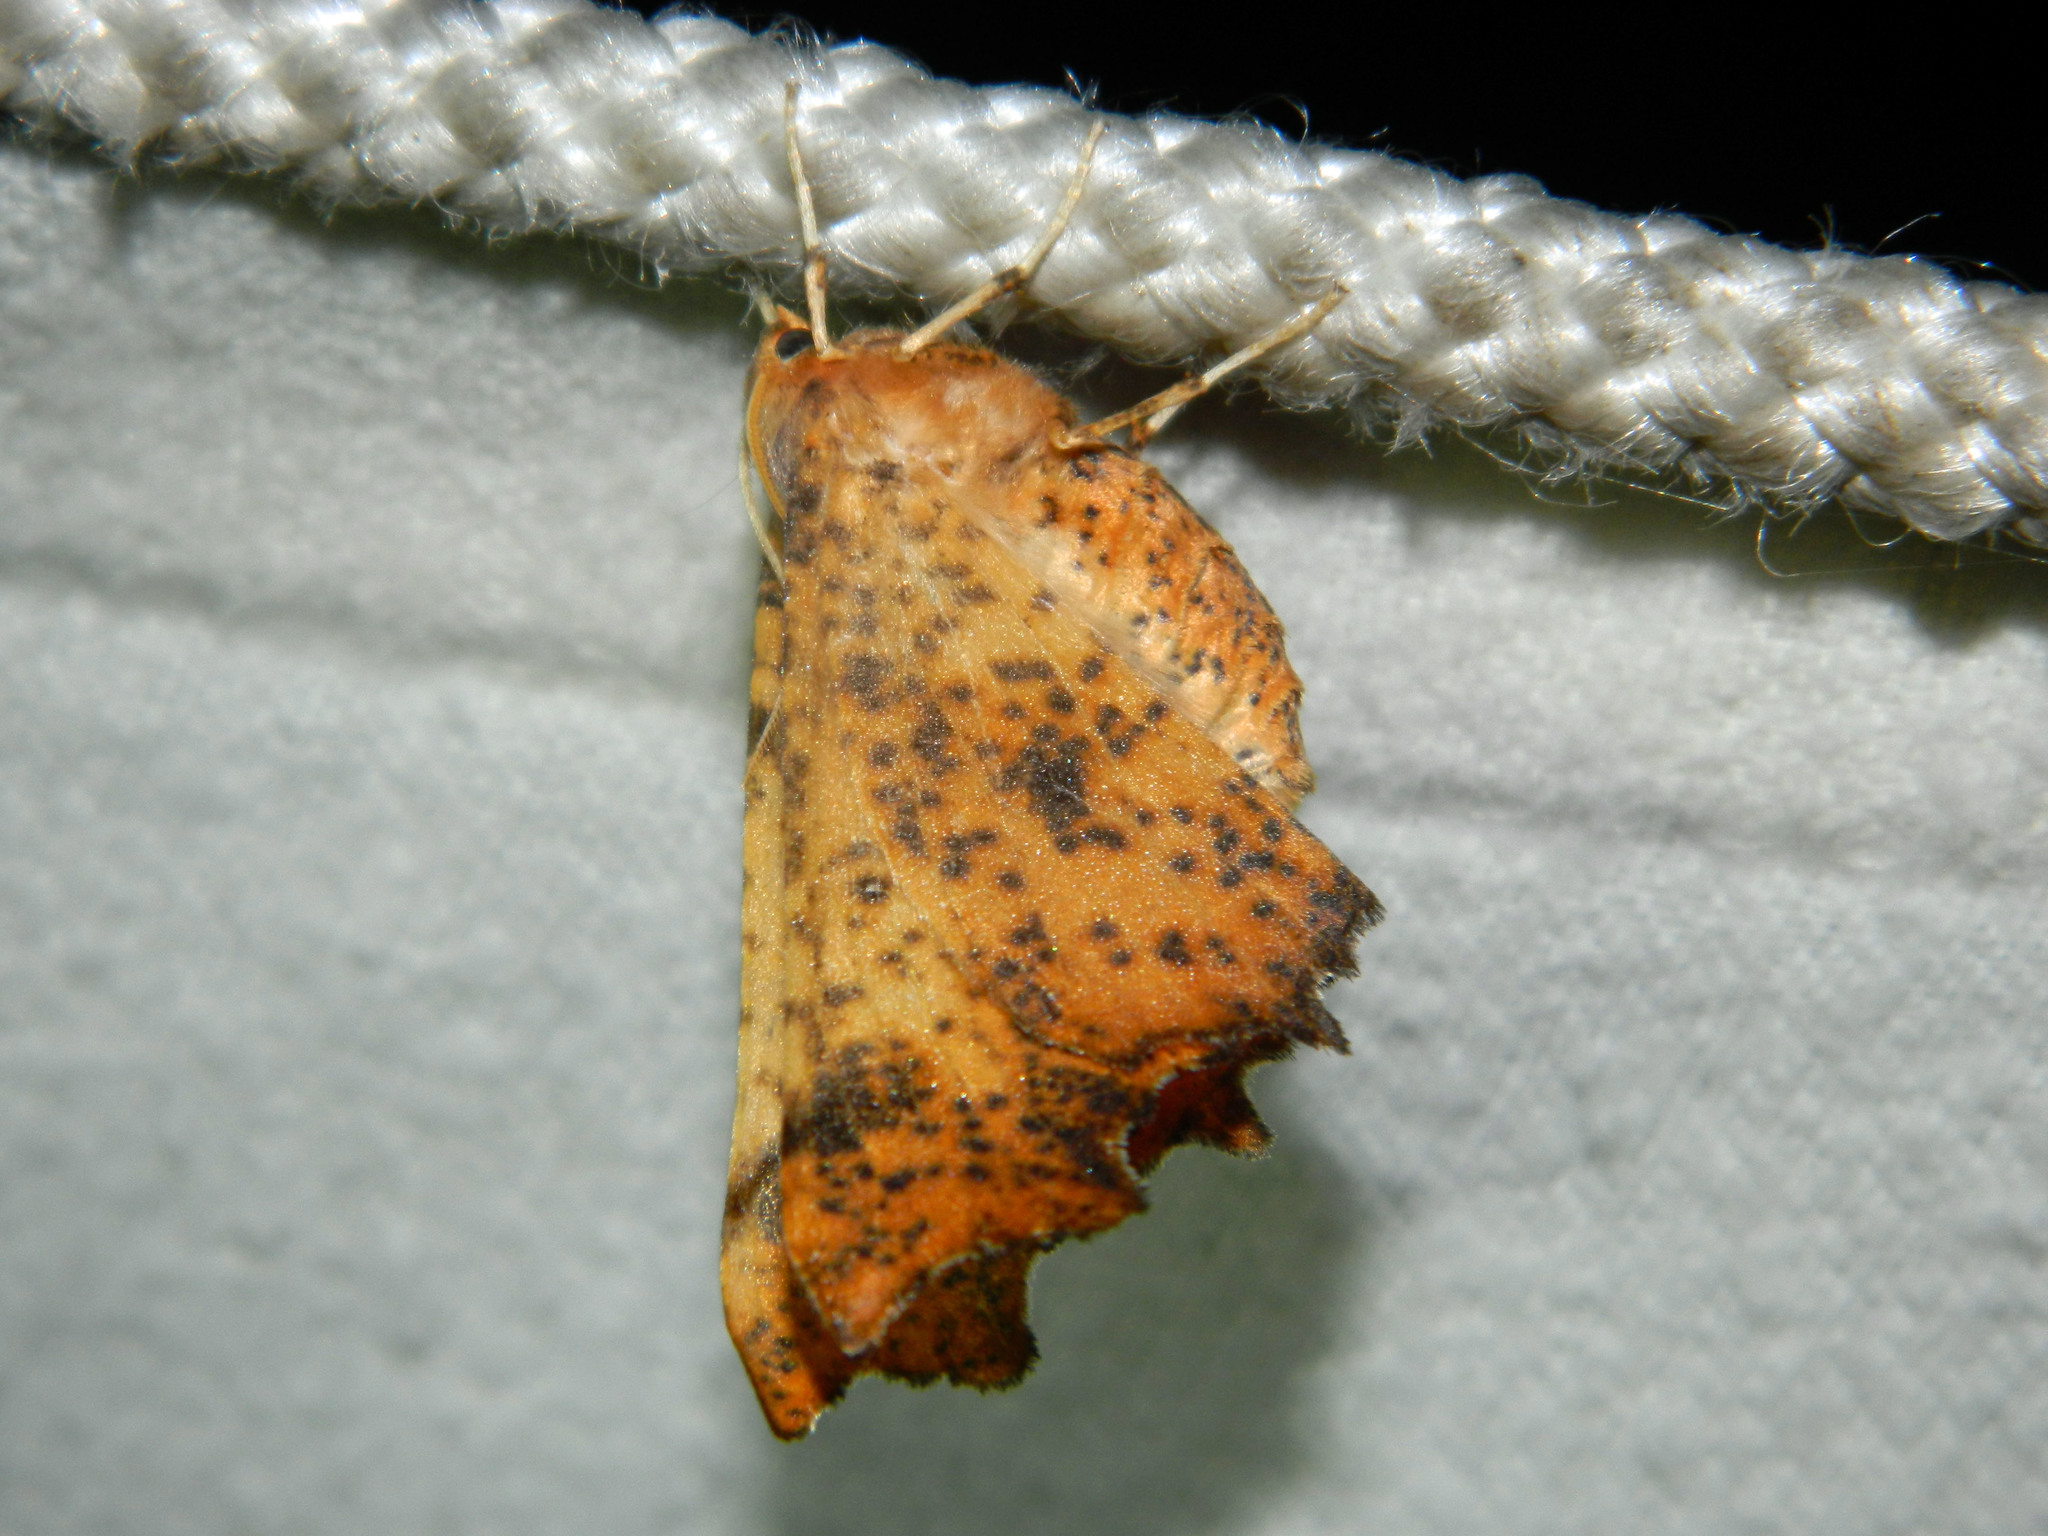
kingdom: Animalia
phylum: Arthropoda
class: Insecta
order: Lepidoptera
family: Geometridae
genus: Ennomos
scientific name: Ennomos magnaria
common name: Maple spanworm
